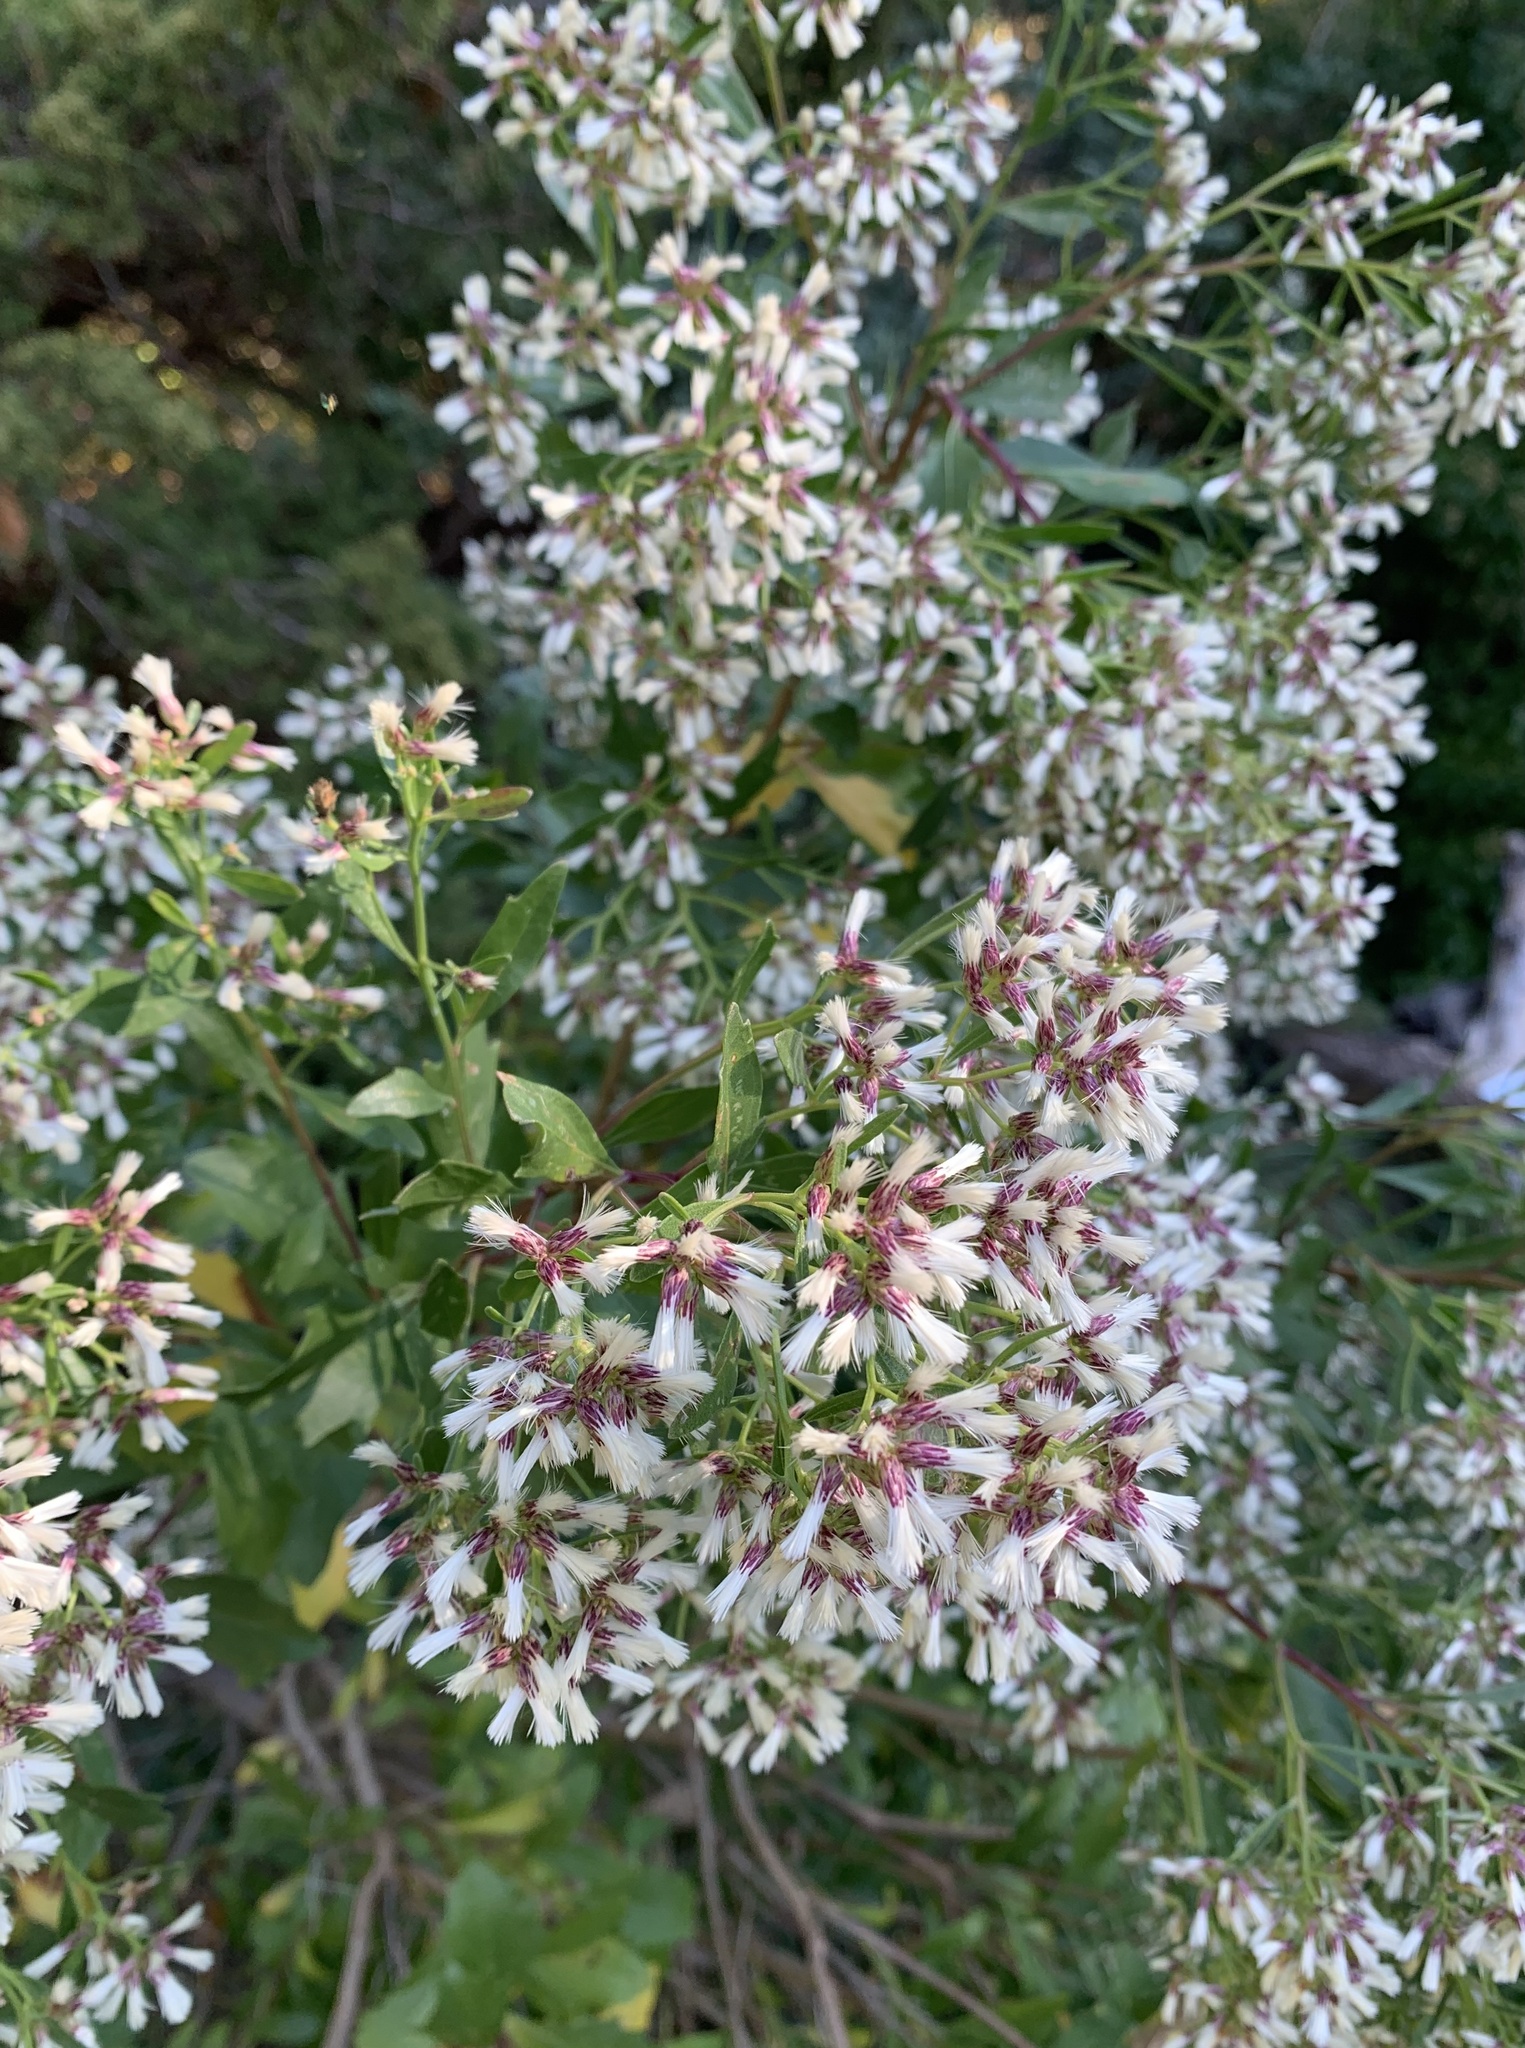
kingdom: Plantae
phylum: Tracheophyta
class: Magnoliopsida
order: Asterales
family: Asteraceae
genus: Baccharis
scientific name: Baccharis halimifolia
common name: Eastern baccharis
